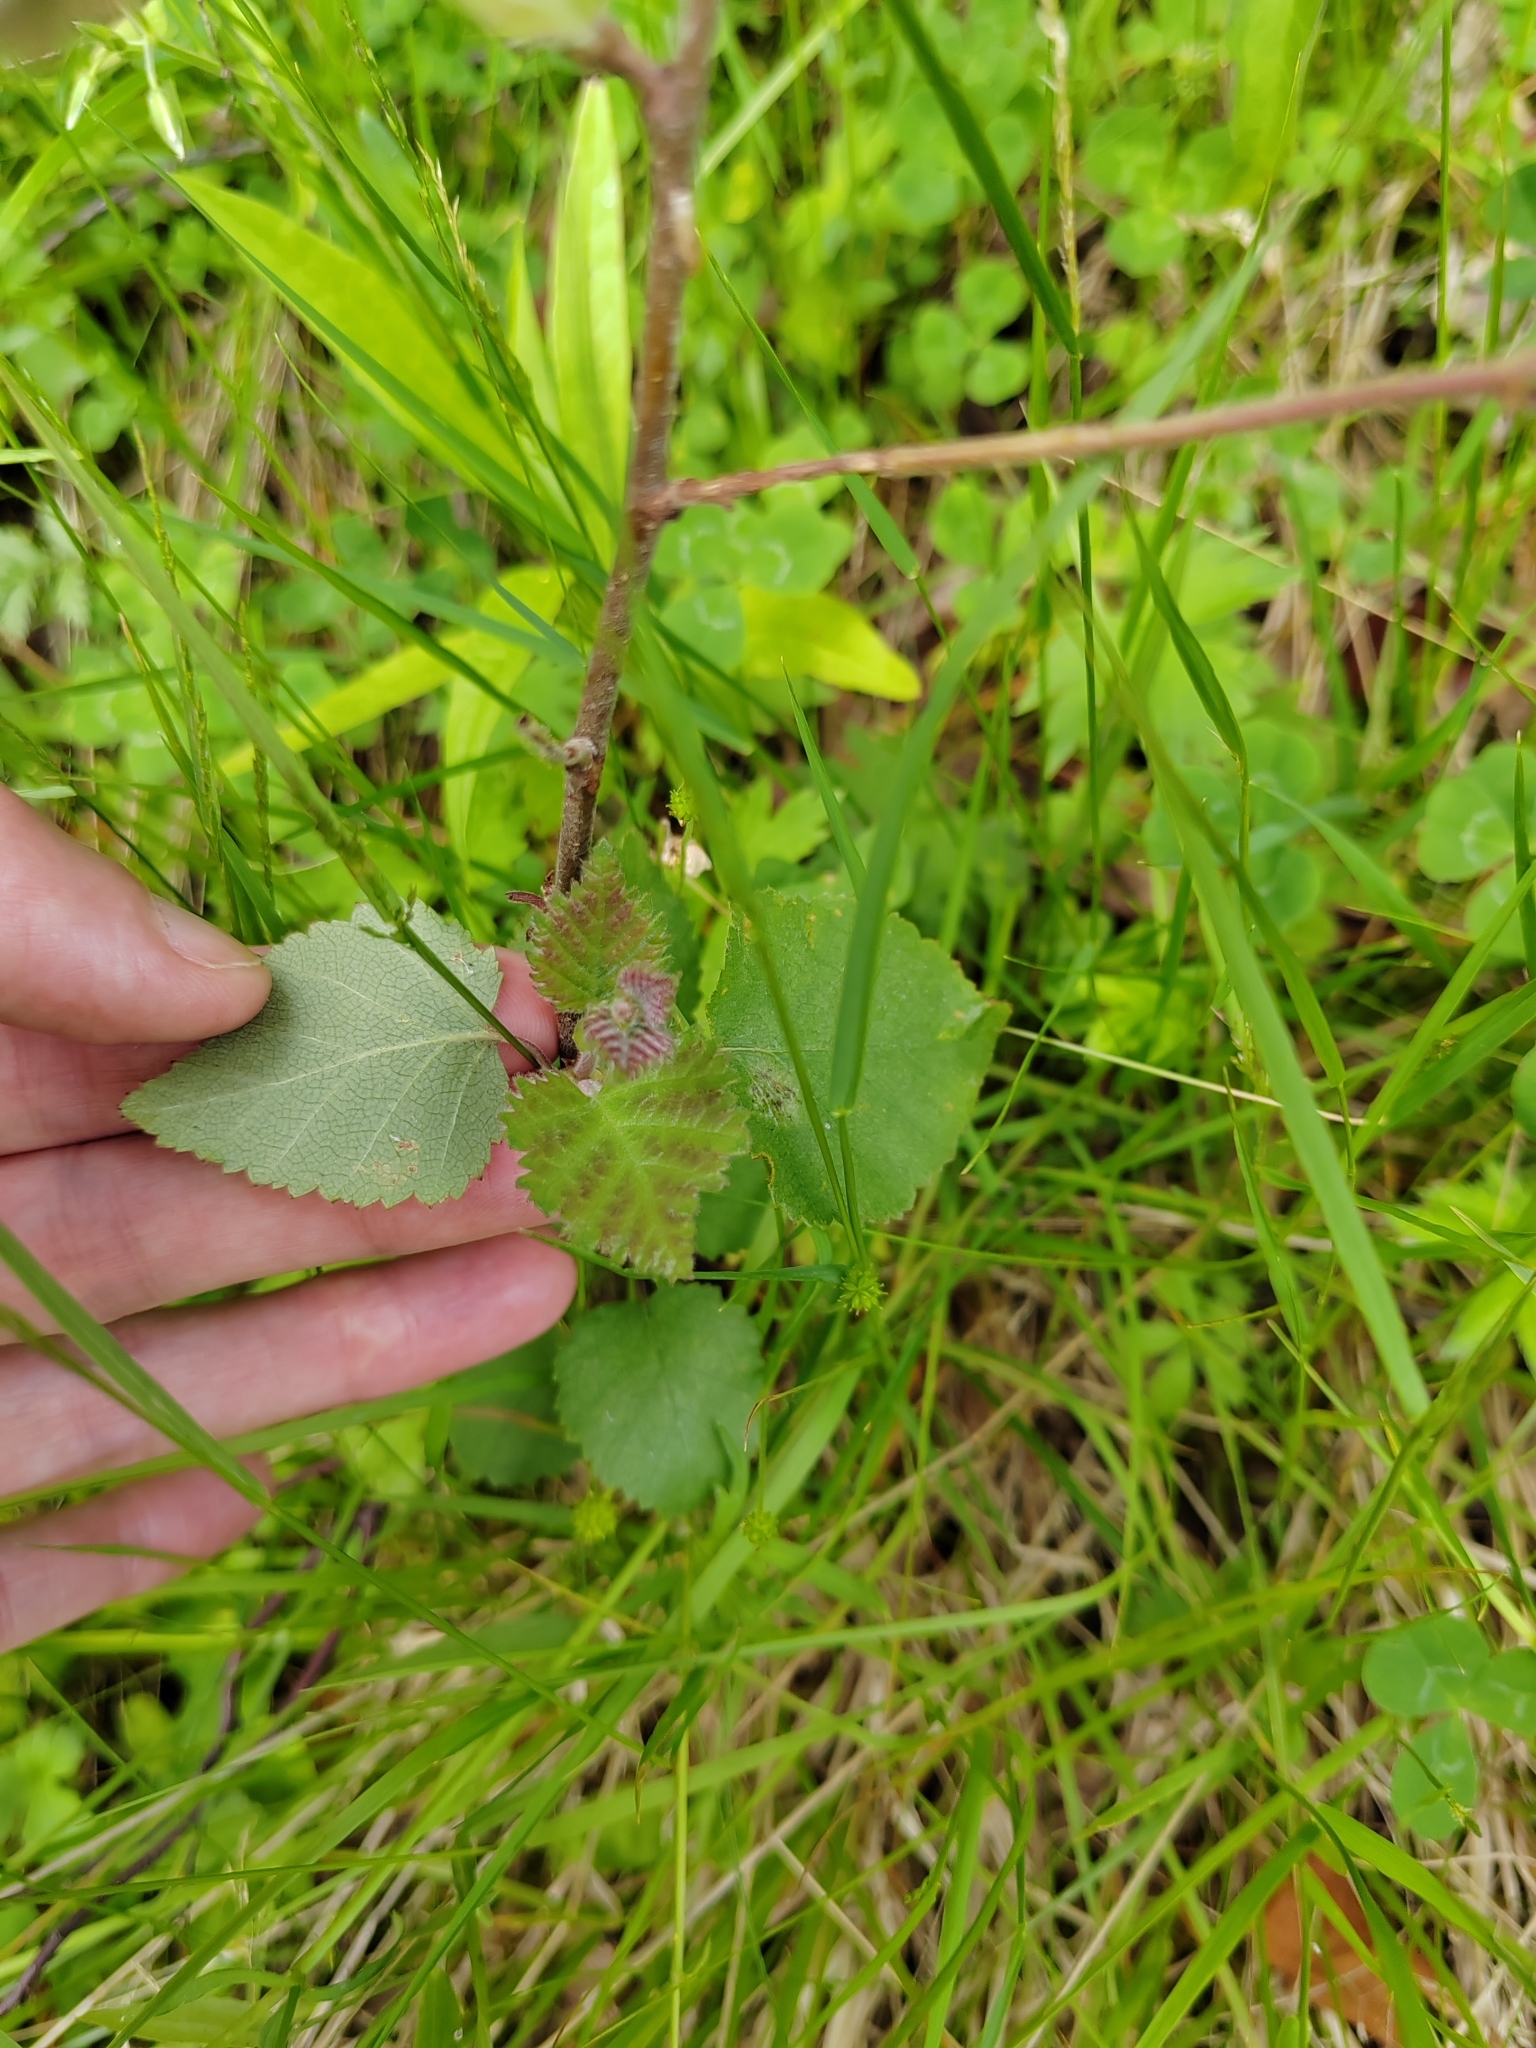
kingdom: Plantae
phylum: Tracheophyta
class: Magnoliopsida
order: Fagales
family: Betulaceae
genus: Betula
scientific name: Betula pubescens
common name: Downy birch
